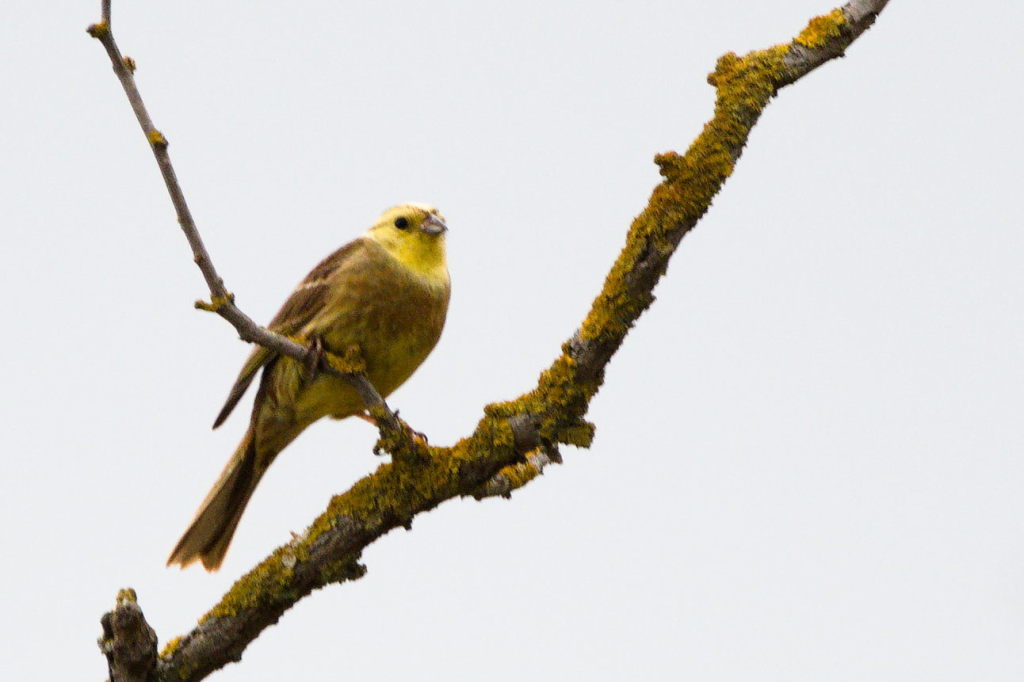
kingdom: Animalia
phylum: Chordata
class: Aves
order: Passeriformes
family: Emberizidae
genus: Emberiza
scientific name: Emberiza citrinella
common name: Yellowhammer
